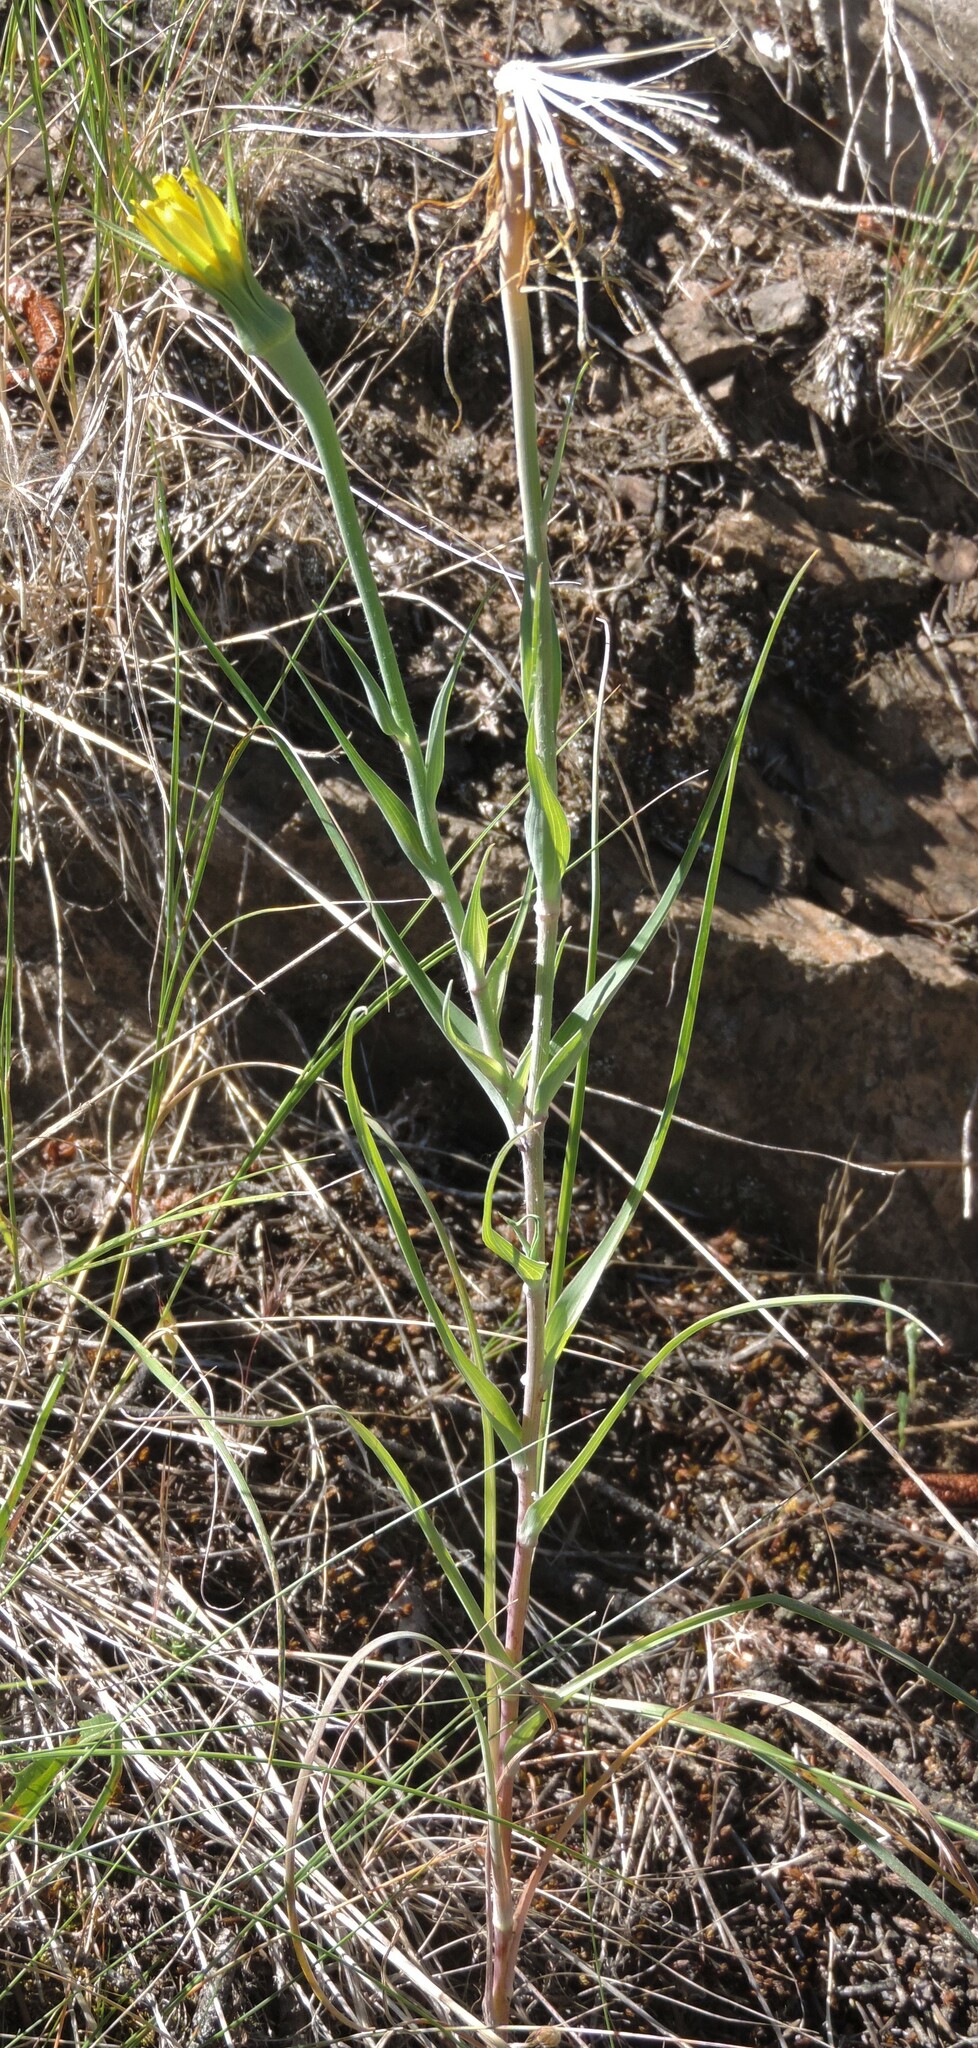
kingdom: Plantae
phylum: Tracheophyta
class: Magnoliopsida
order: Asterales
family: Asteraceae
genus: Tragopogon
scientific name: Tragopogon dubius
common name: Yellow salsify
